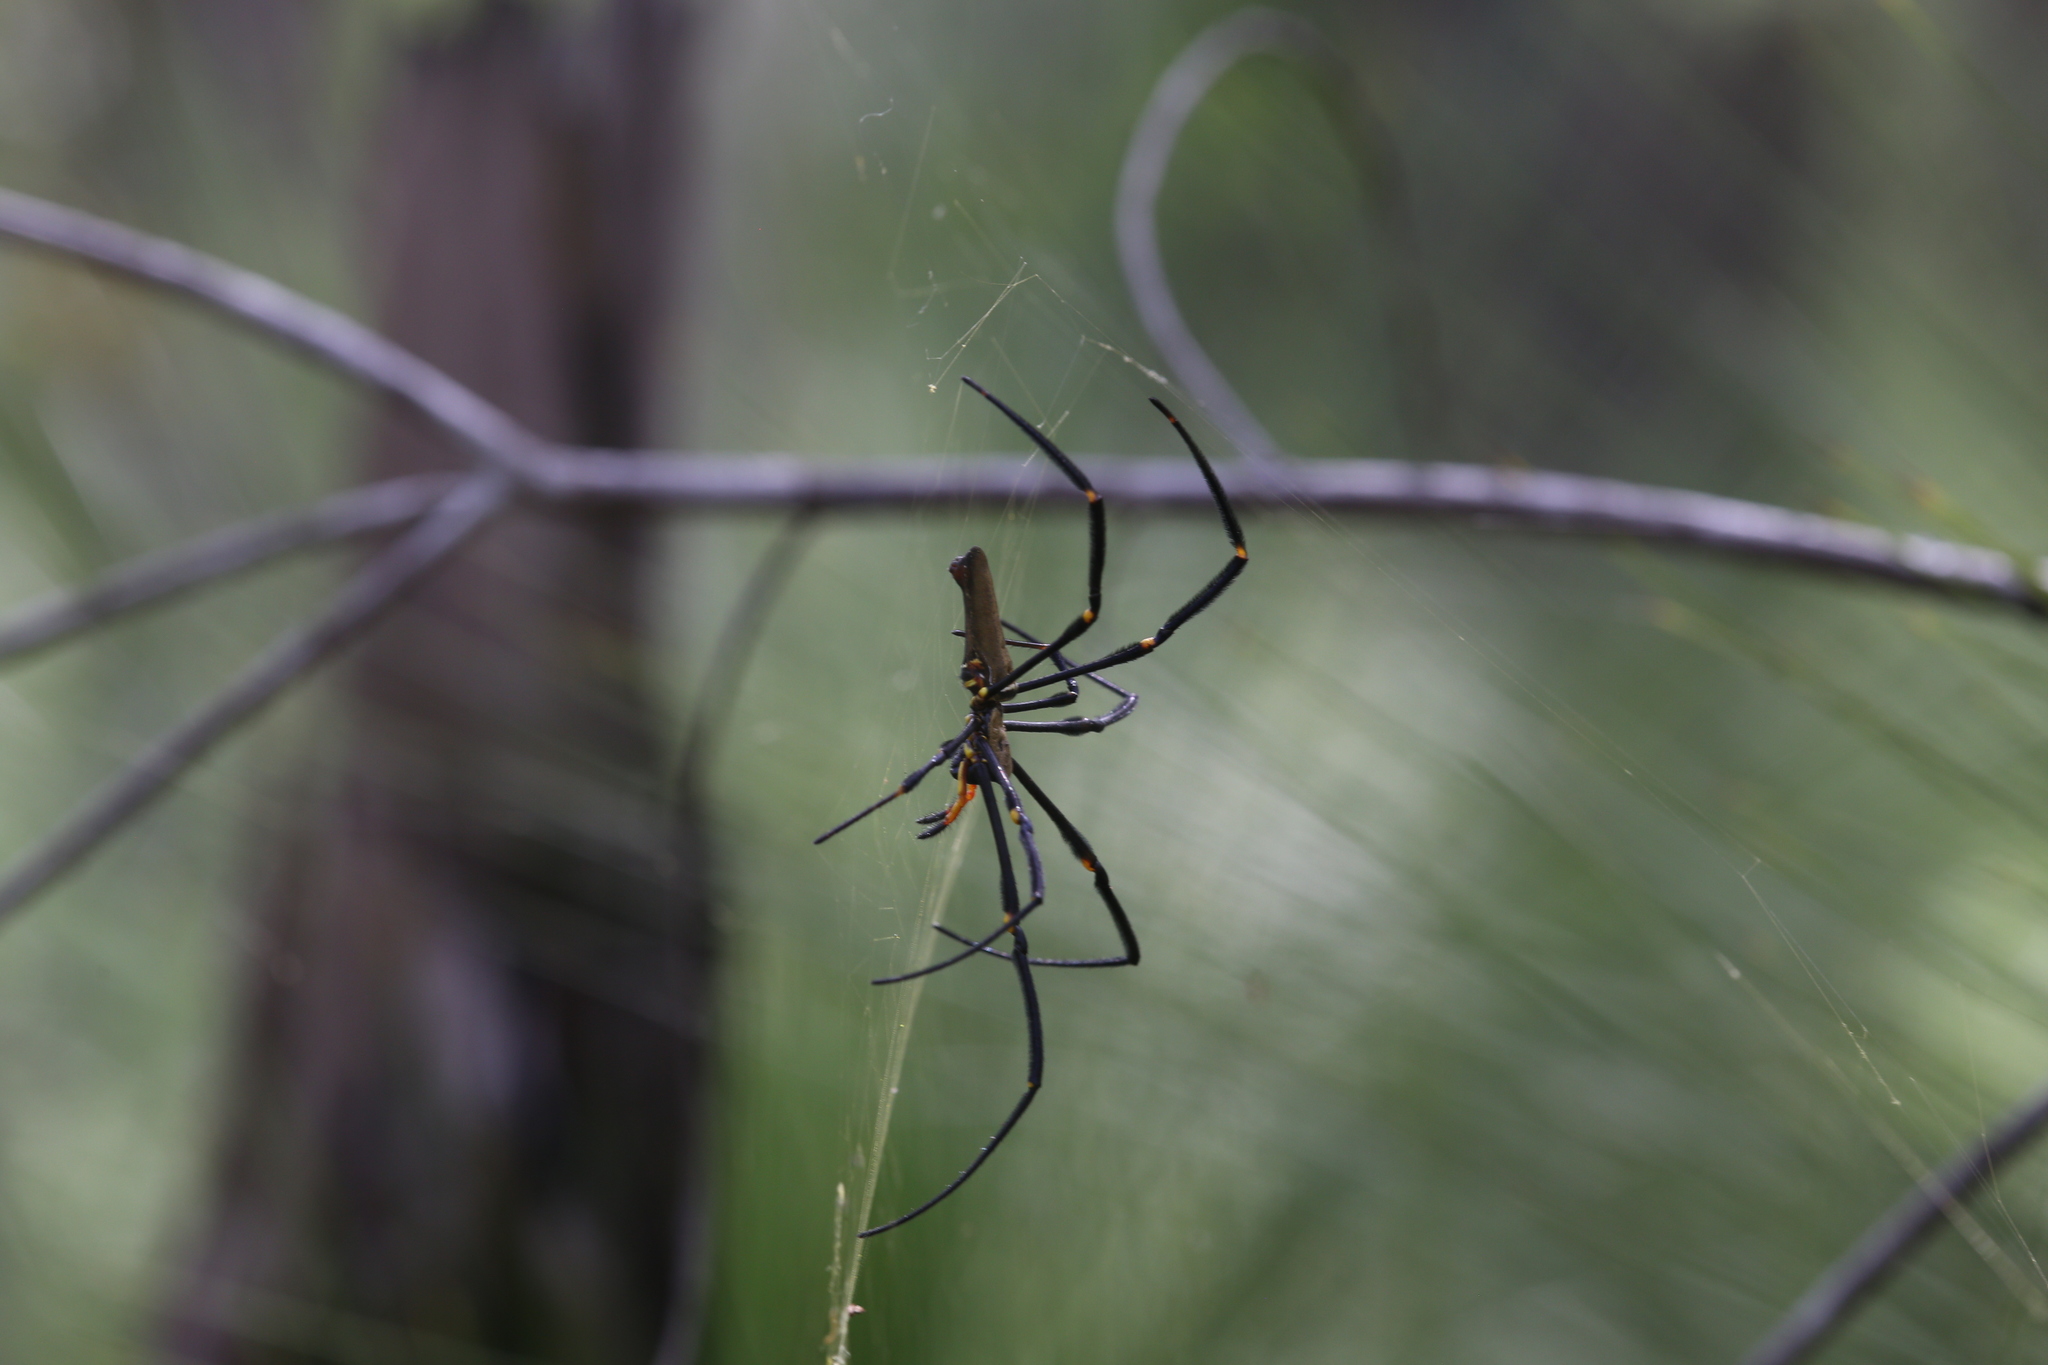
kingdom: Animalia
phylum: Arthropoda
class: Arachnida
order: Araneae
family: Araneidae
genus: Nephila
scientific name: Nephila pilipes
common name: Giant golden orb weaver
